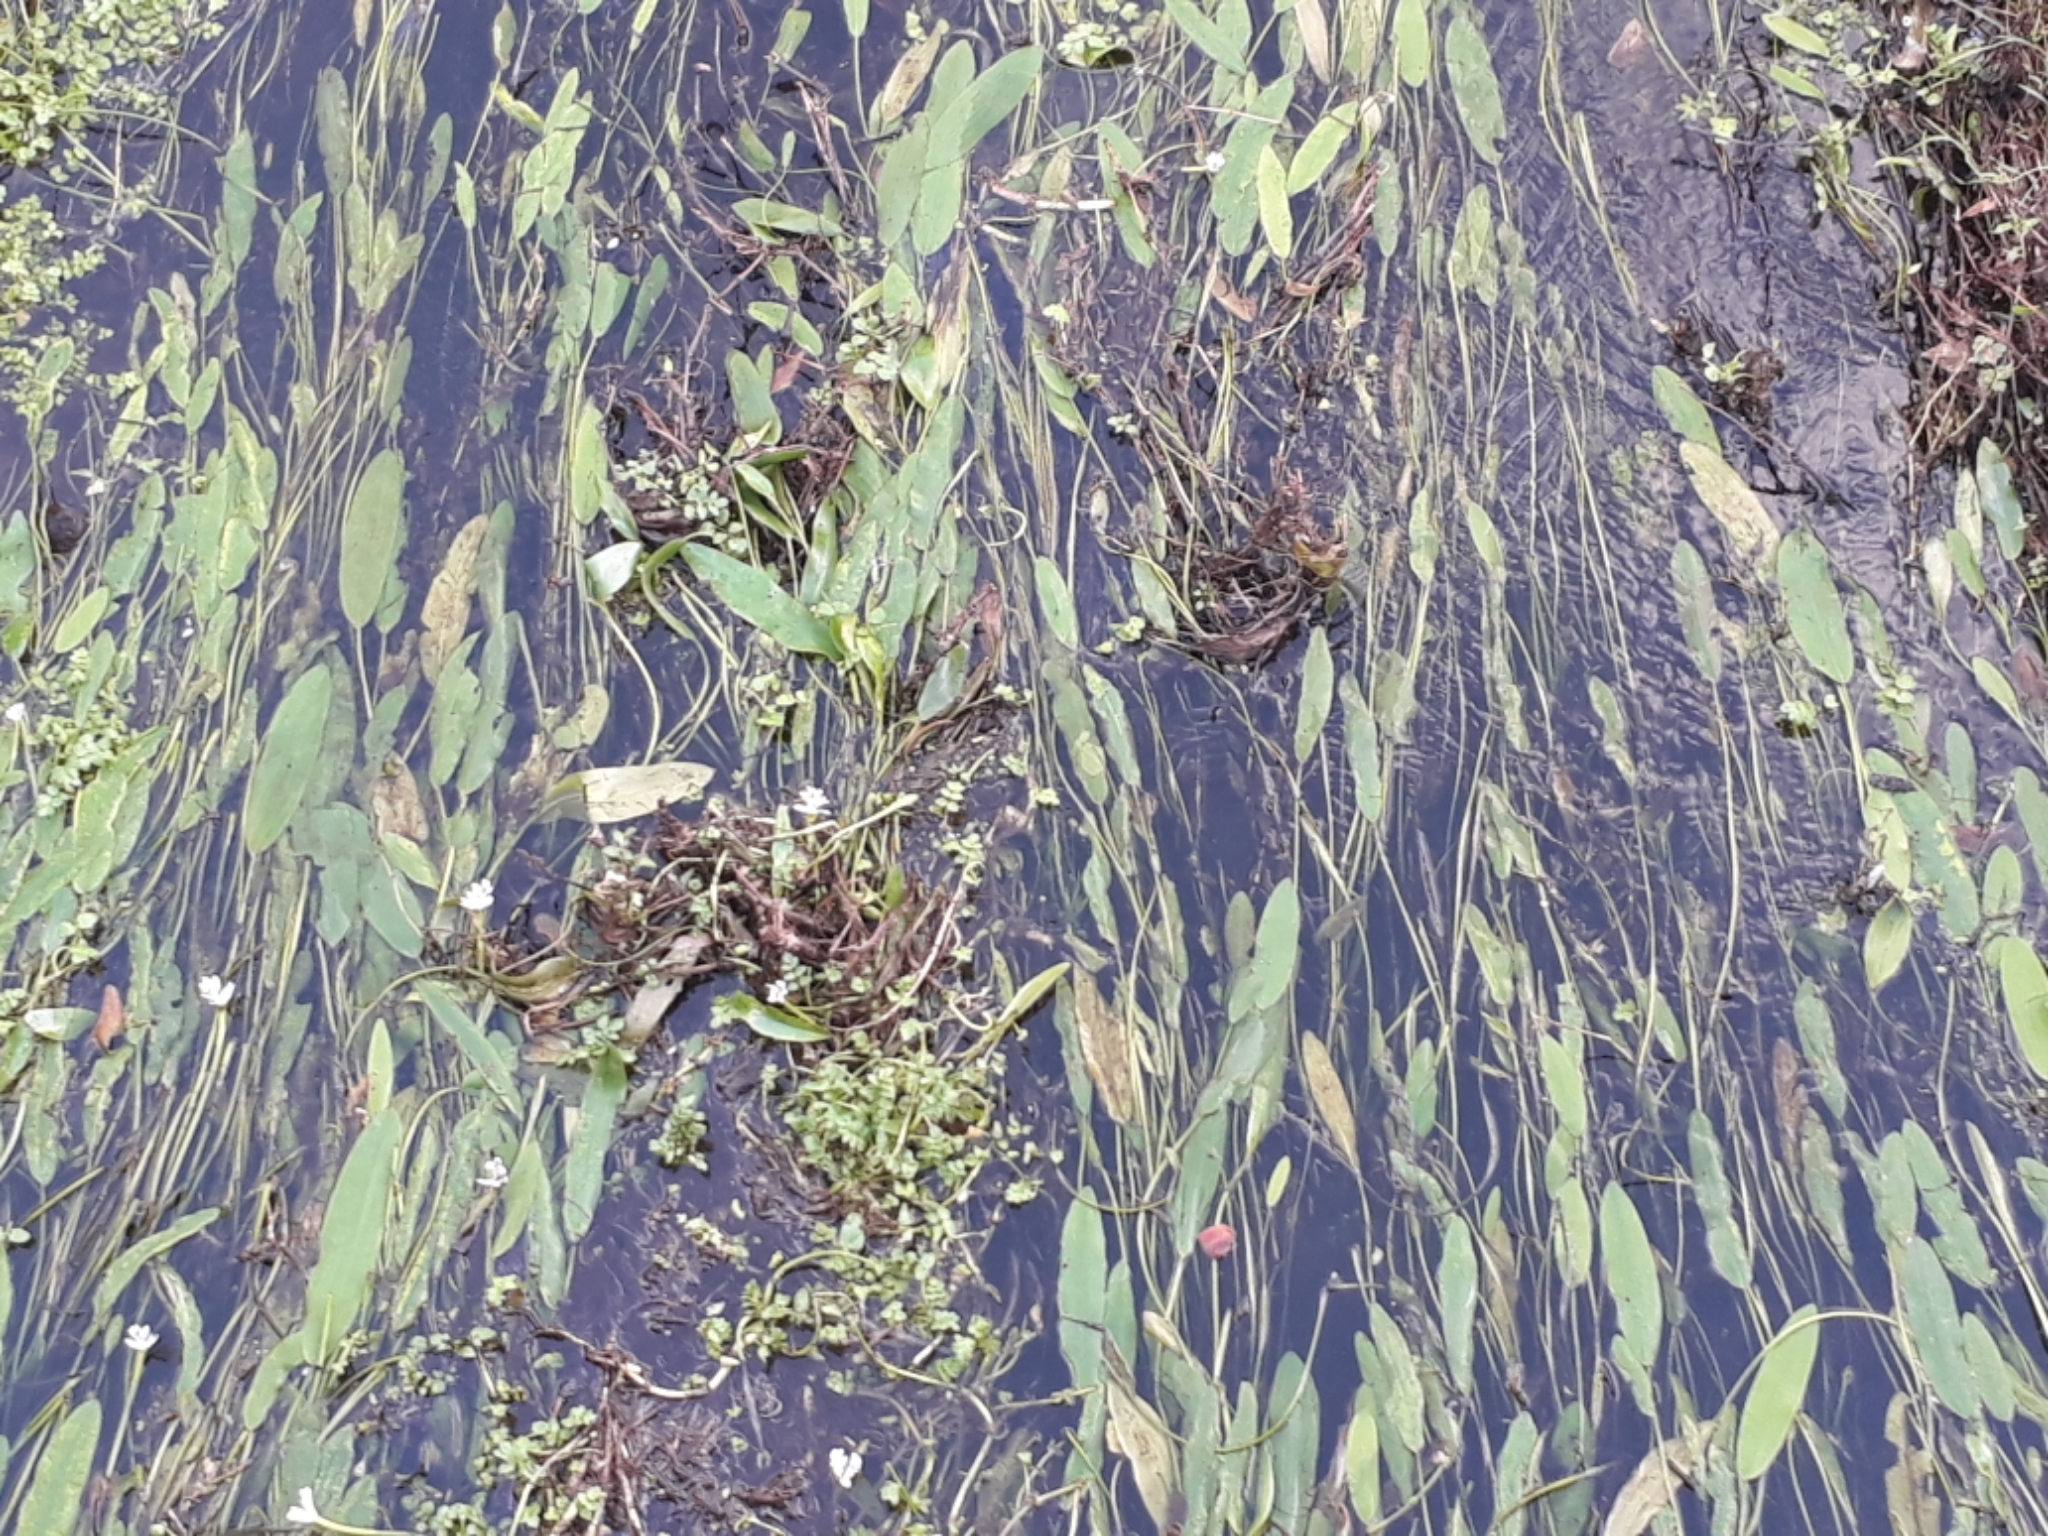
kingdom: Plantae
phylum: Tracheophyta
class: Liliopsida
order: Alismatales
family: Aponogetonaceae
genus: Aponogeton
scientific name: Aponogeton distachyos
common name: Cape-pondweed
